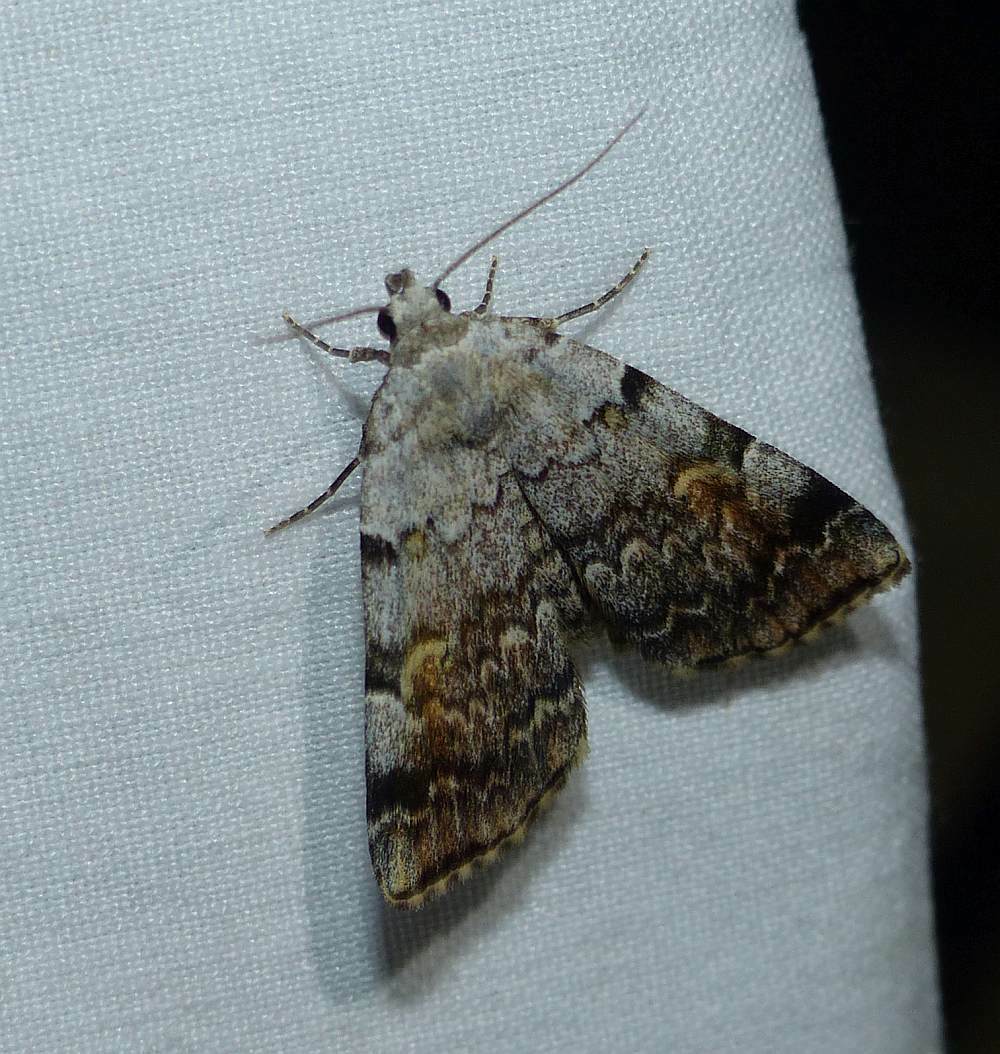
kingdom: Animalia
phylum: Arthropoda
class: Insecta
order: Lepidoptera
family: Erebidae
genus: Idia
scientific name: Idia americalis
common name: American idia moth
